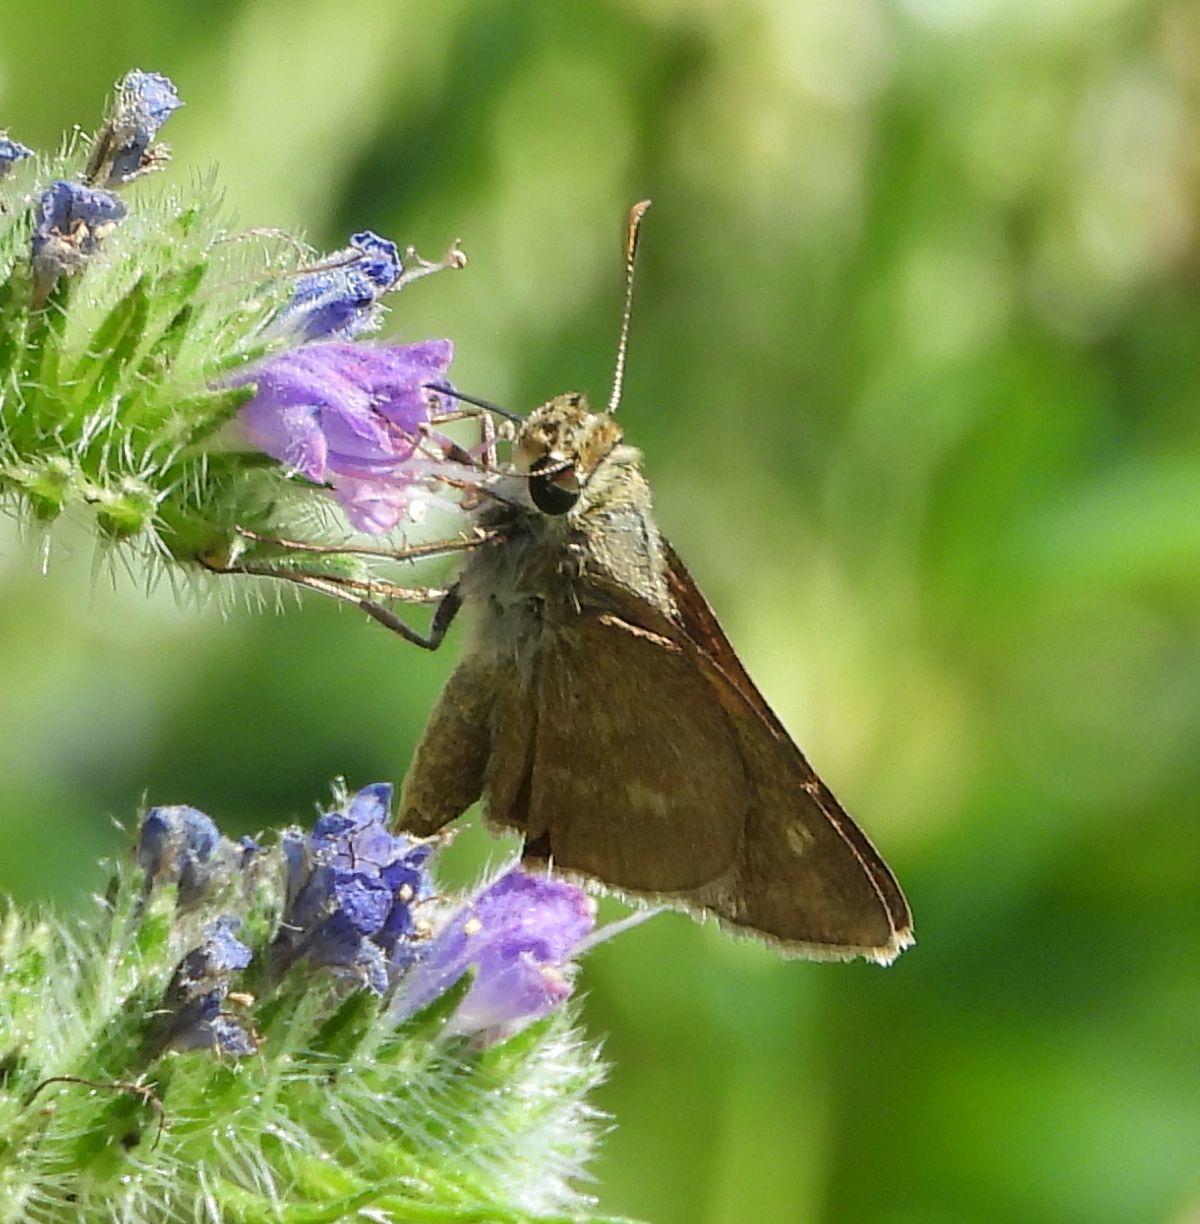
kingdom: Animalia
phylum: Arthropoda
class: Insecta
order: Lepidoptera
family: Hesperiidae
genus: Polites
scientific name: Polites egeremet
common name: Northern broken-dash
